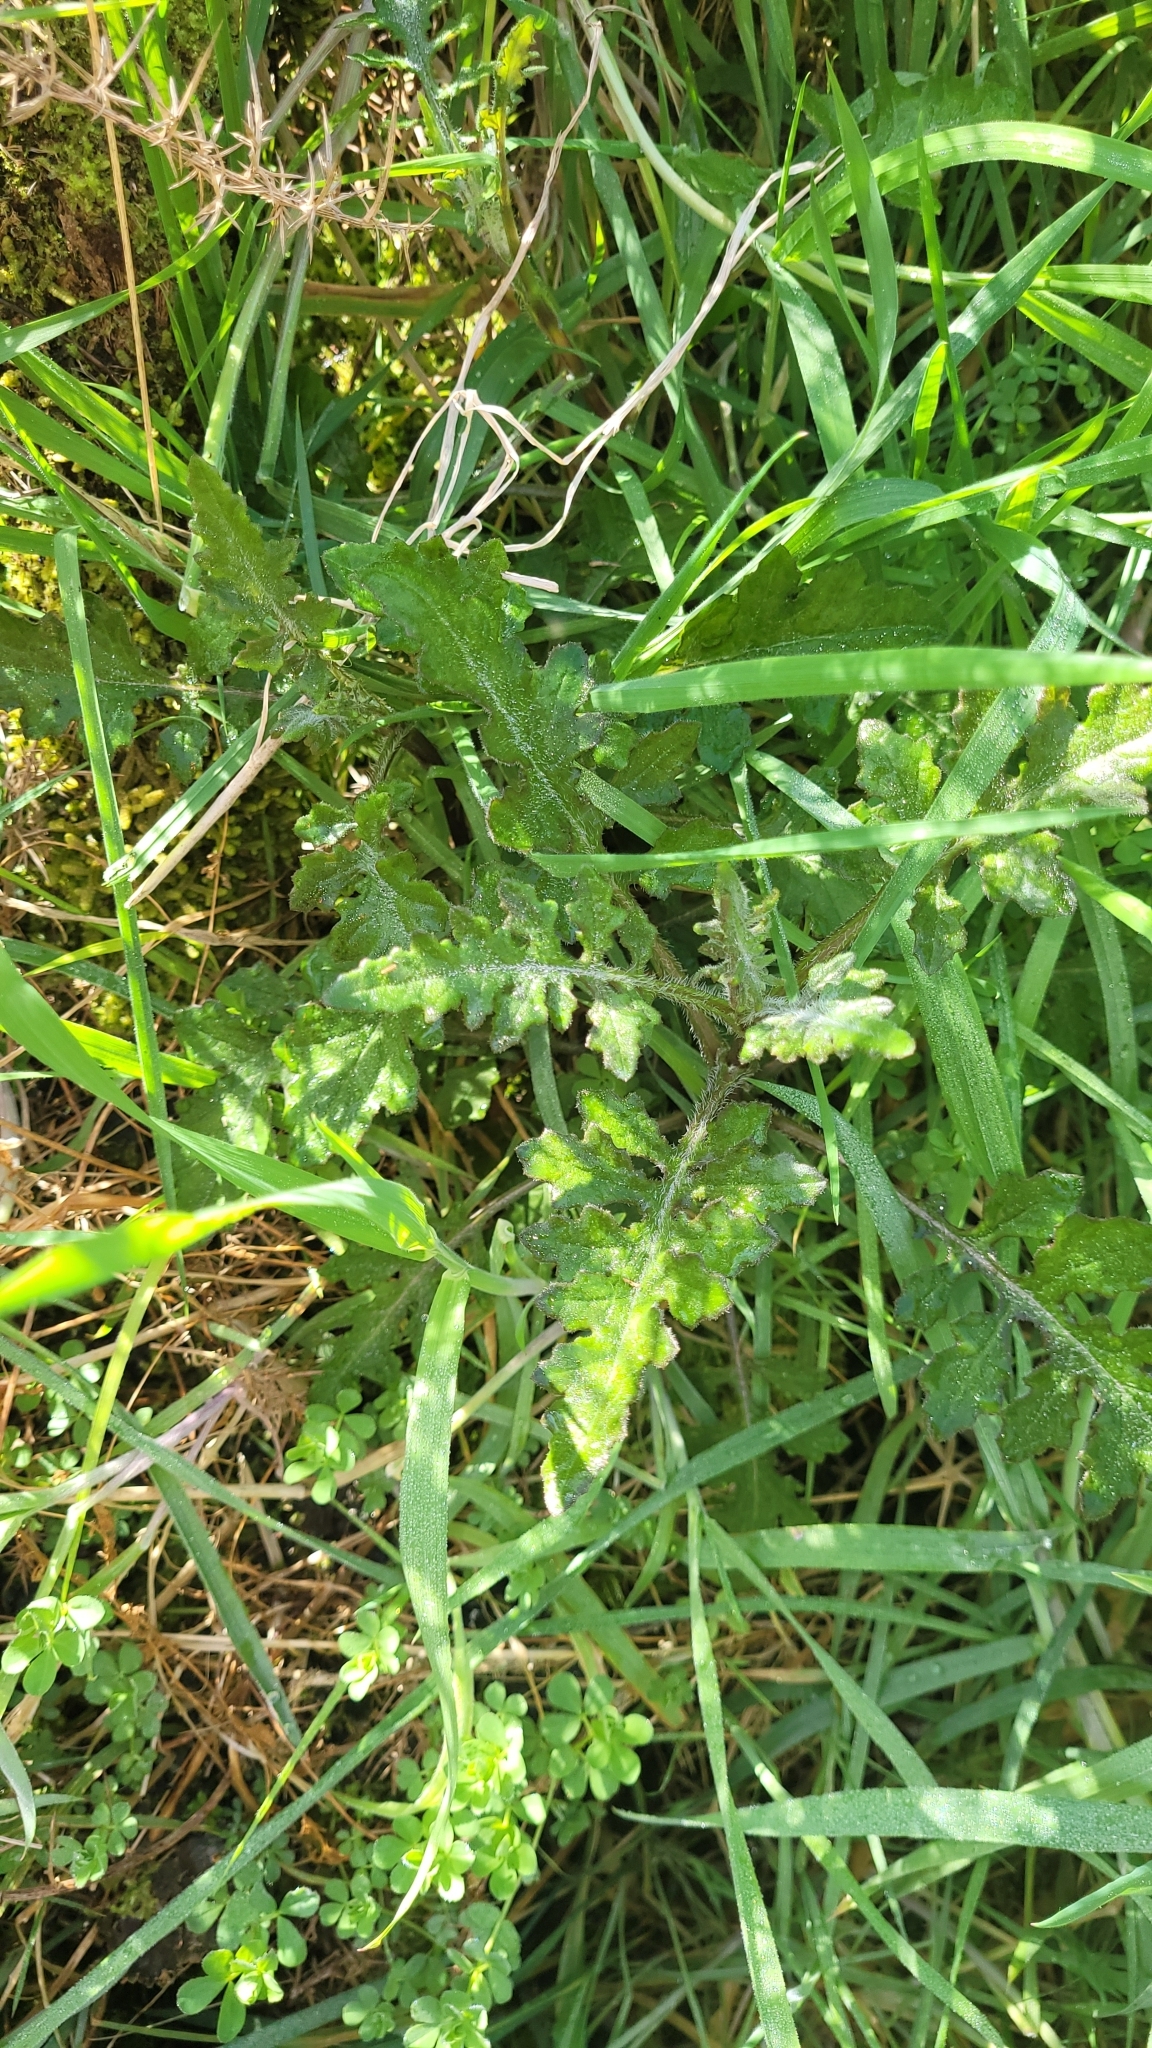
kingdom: Plantae
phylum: Tracheophyta
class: Magnoliopsida
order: Asterales
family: Asteraceae
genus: Senecio
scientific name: Senecio wairauensis
